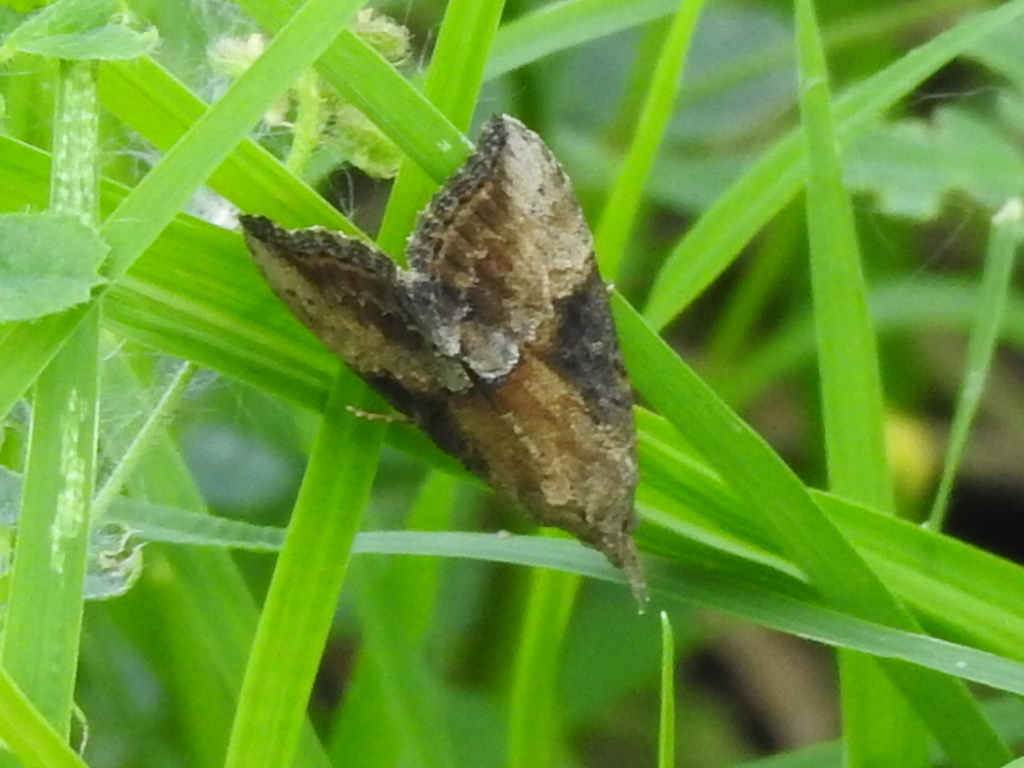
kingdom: Animalia
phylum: Arthropoda
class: Insecta
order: Lepidoptera
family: Erebidae
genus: Hypena
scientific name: Hypena scabra
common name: Green cloverworm
